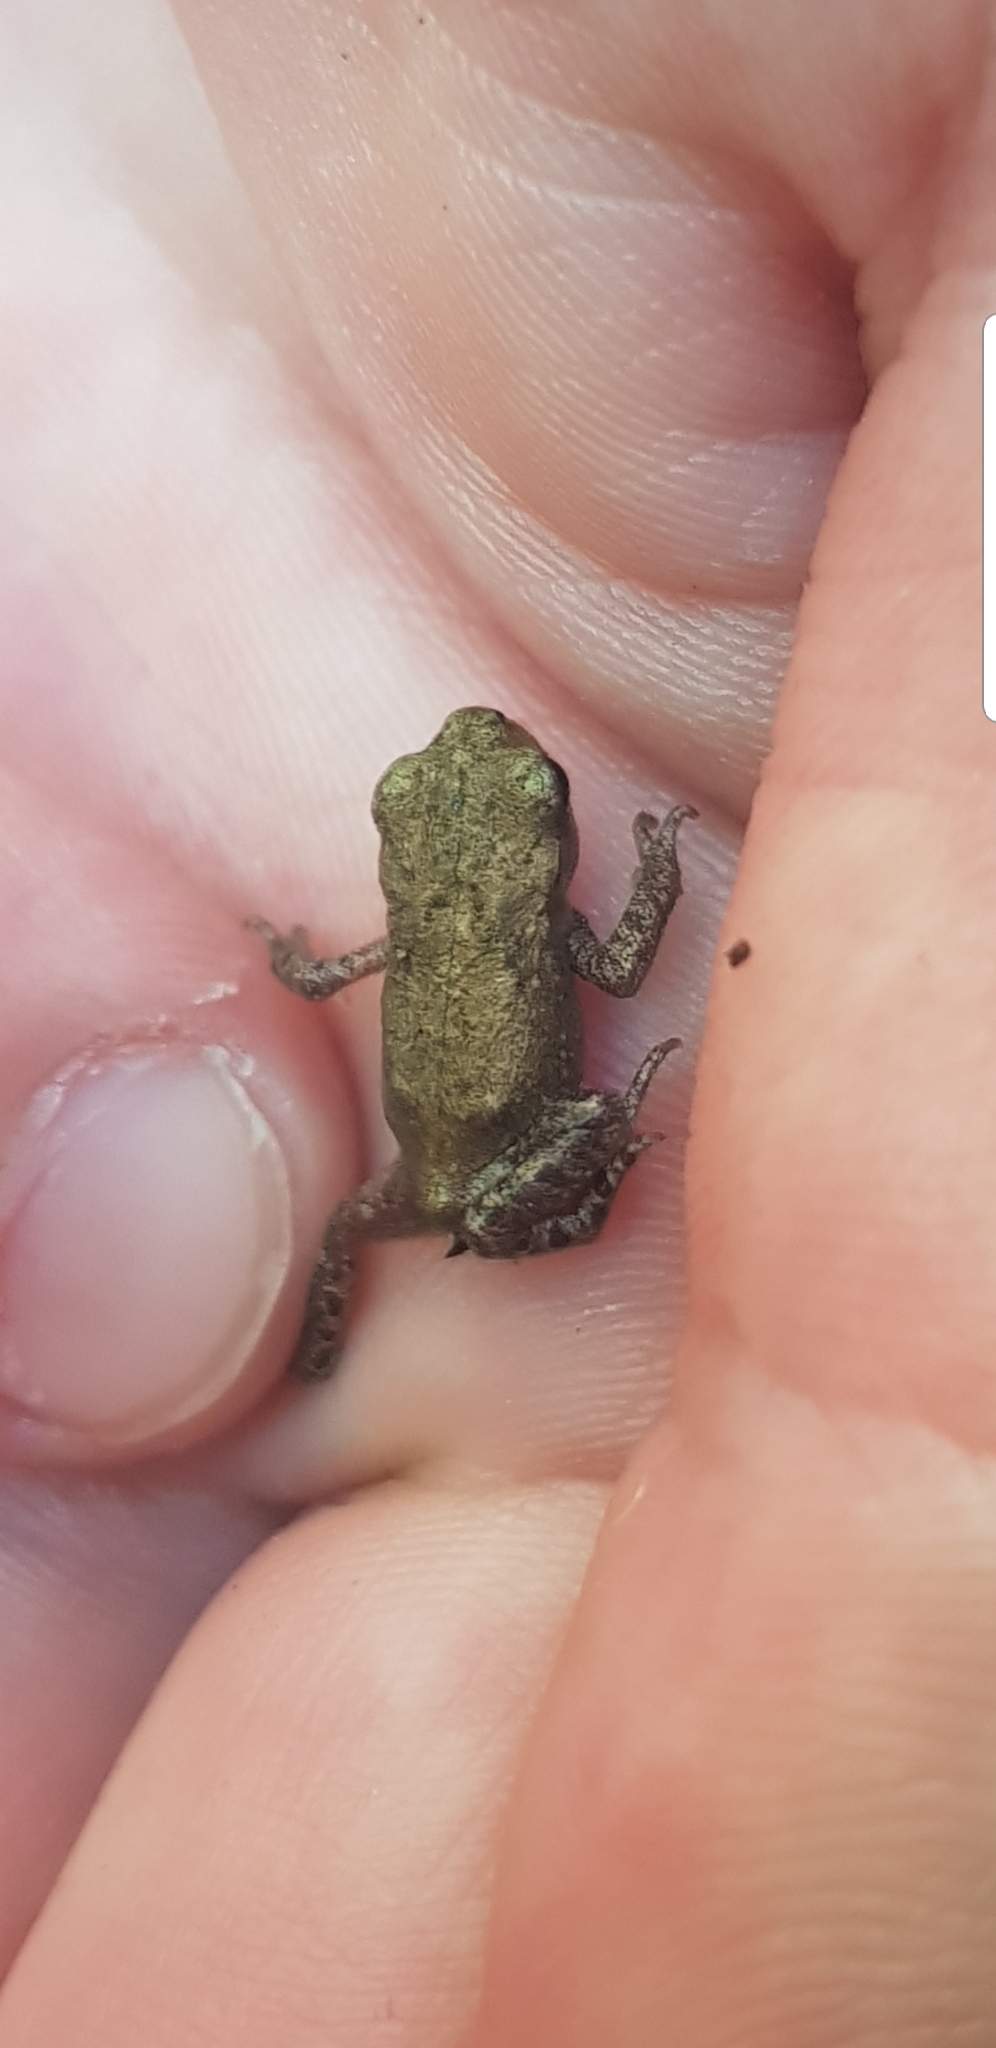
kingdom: Animalia
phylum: Chordata
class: Amphibia
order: Anura
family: Bufonidae
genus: Bufo
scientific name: Bufo bufo
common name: Common toad
